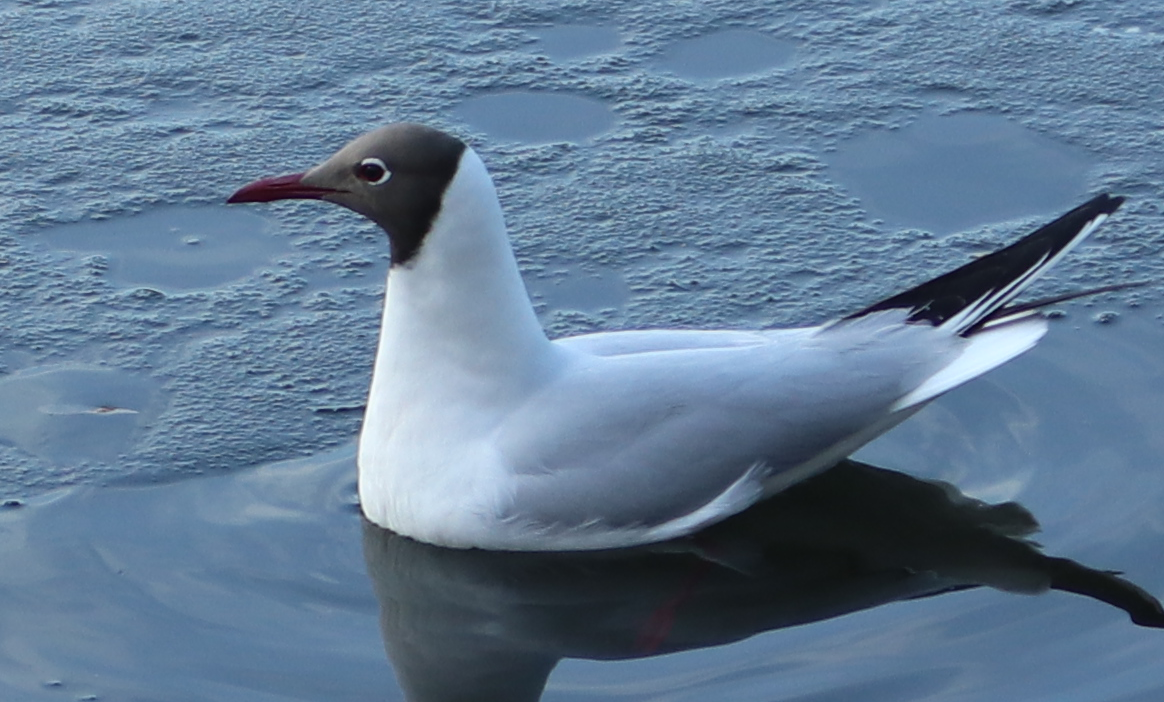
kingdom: Animalia
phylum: Chordata
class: Aves
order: Charadriiformes
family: Laridae
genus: Chroicocephalus
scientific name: Chroicocephalus ridibundus
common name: Black-headed gull
